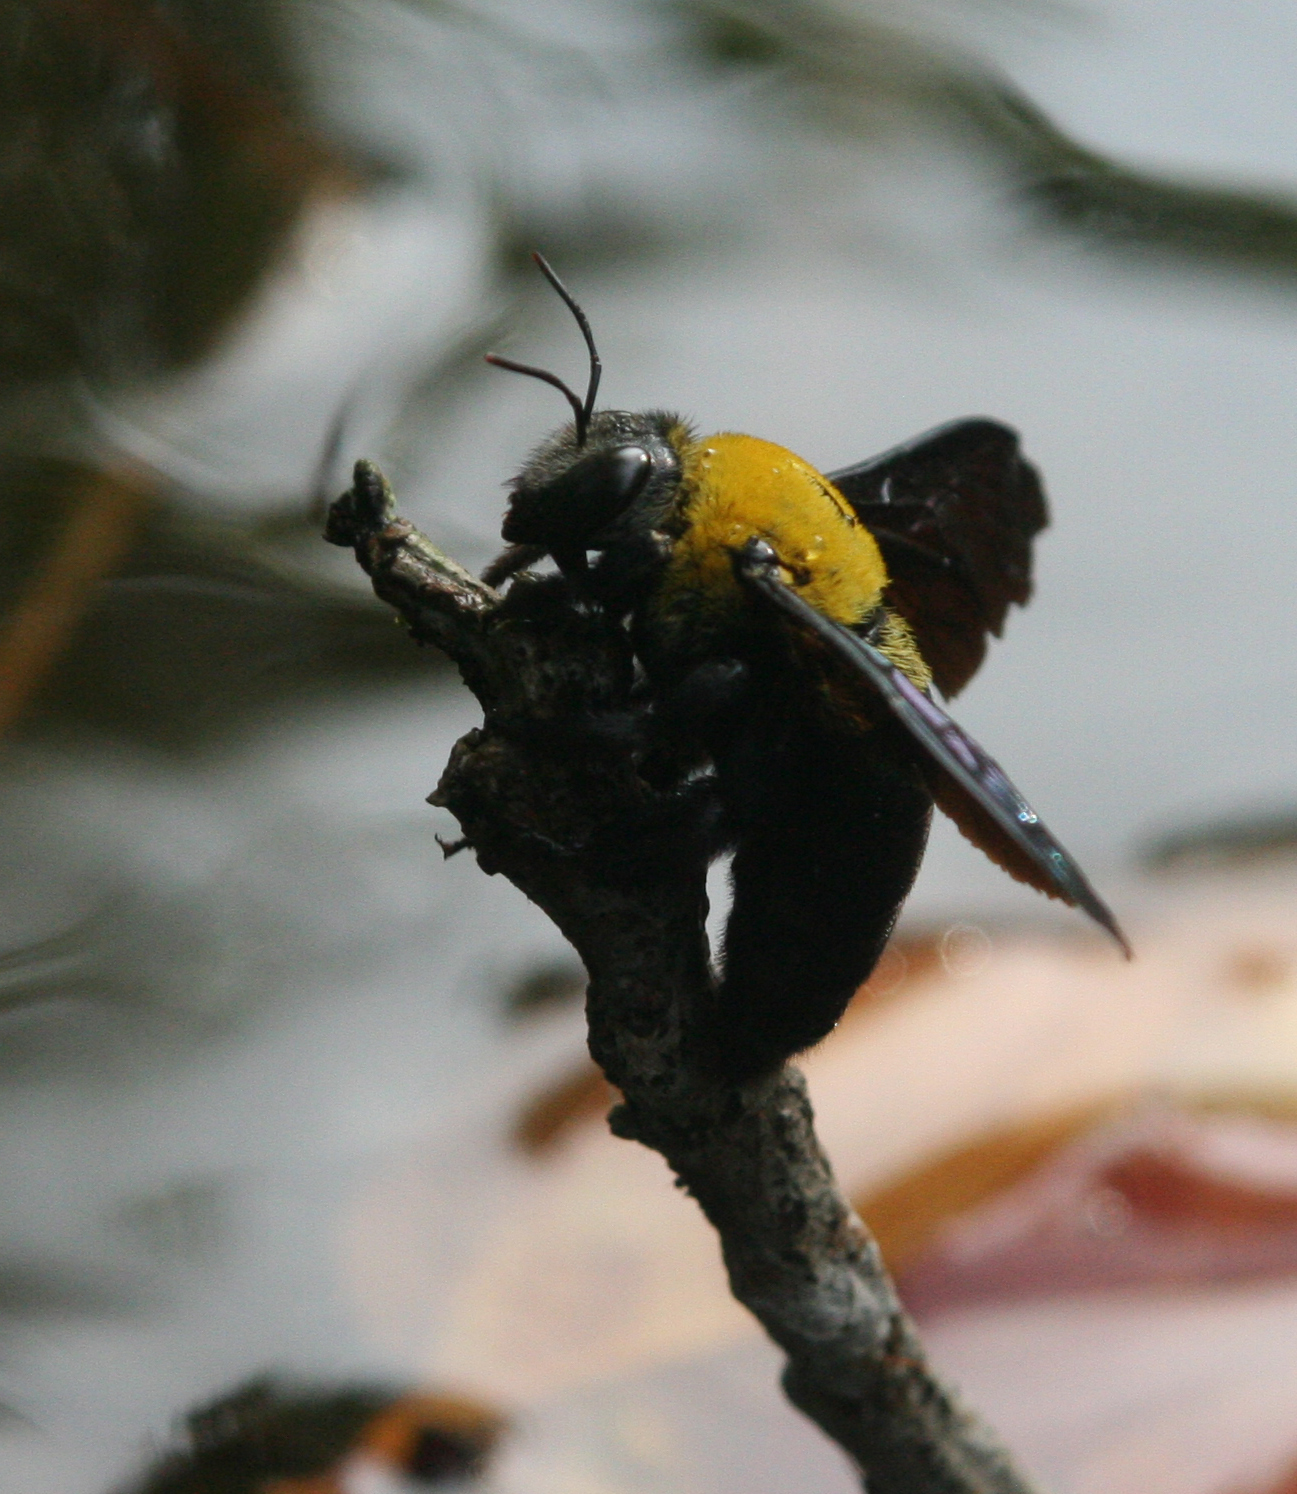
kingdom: Animalia
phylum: Arthropoda
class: Insecta
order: Hymenoptera
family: Apidae
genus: Xylocopa
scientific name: Xylocopa minor
